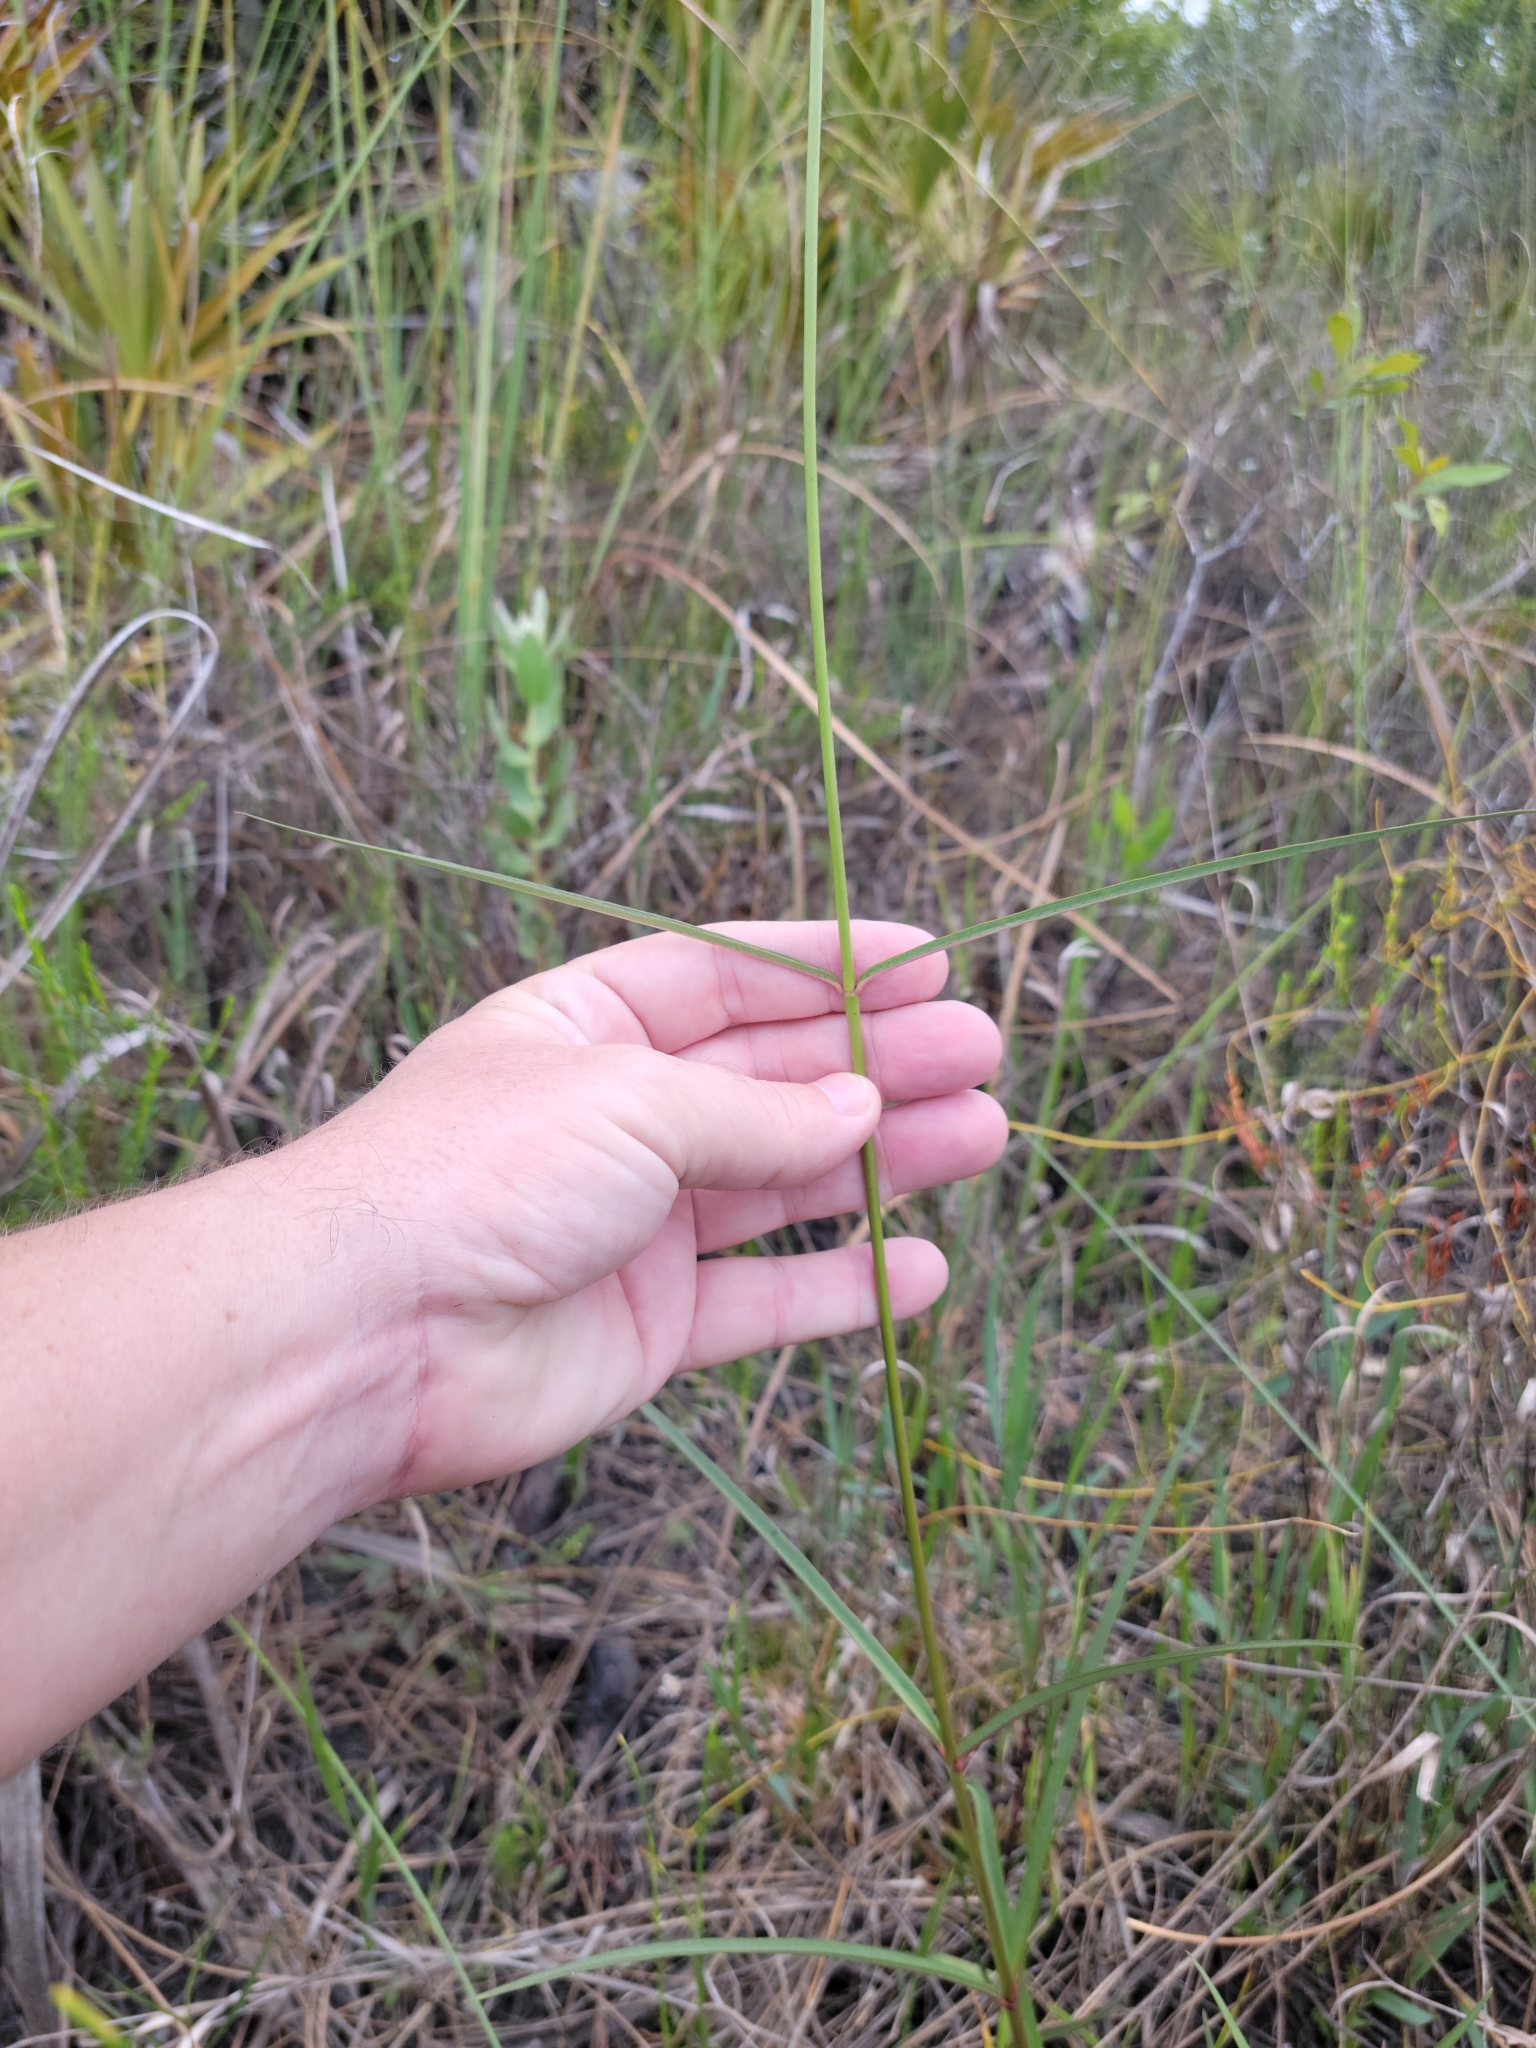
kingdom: Plantae
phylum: Tracheophyta
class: Magnoliopsida
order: Gentianales
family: Apocynaceae
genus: Asclepias
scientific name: Asclepias lanceolata
